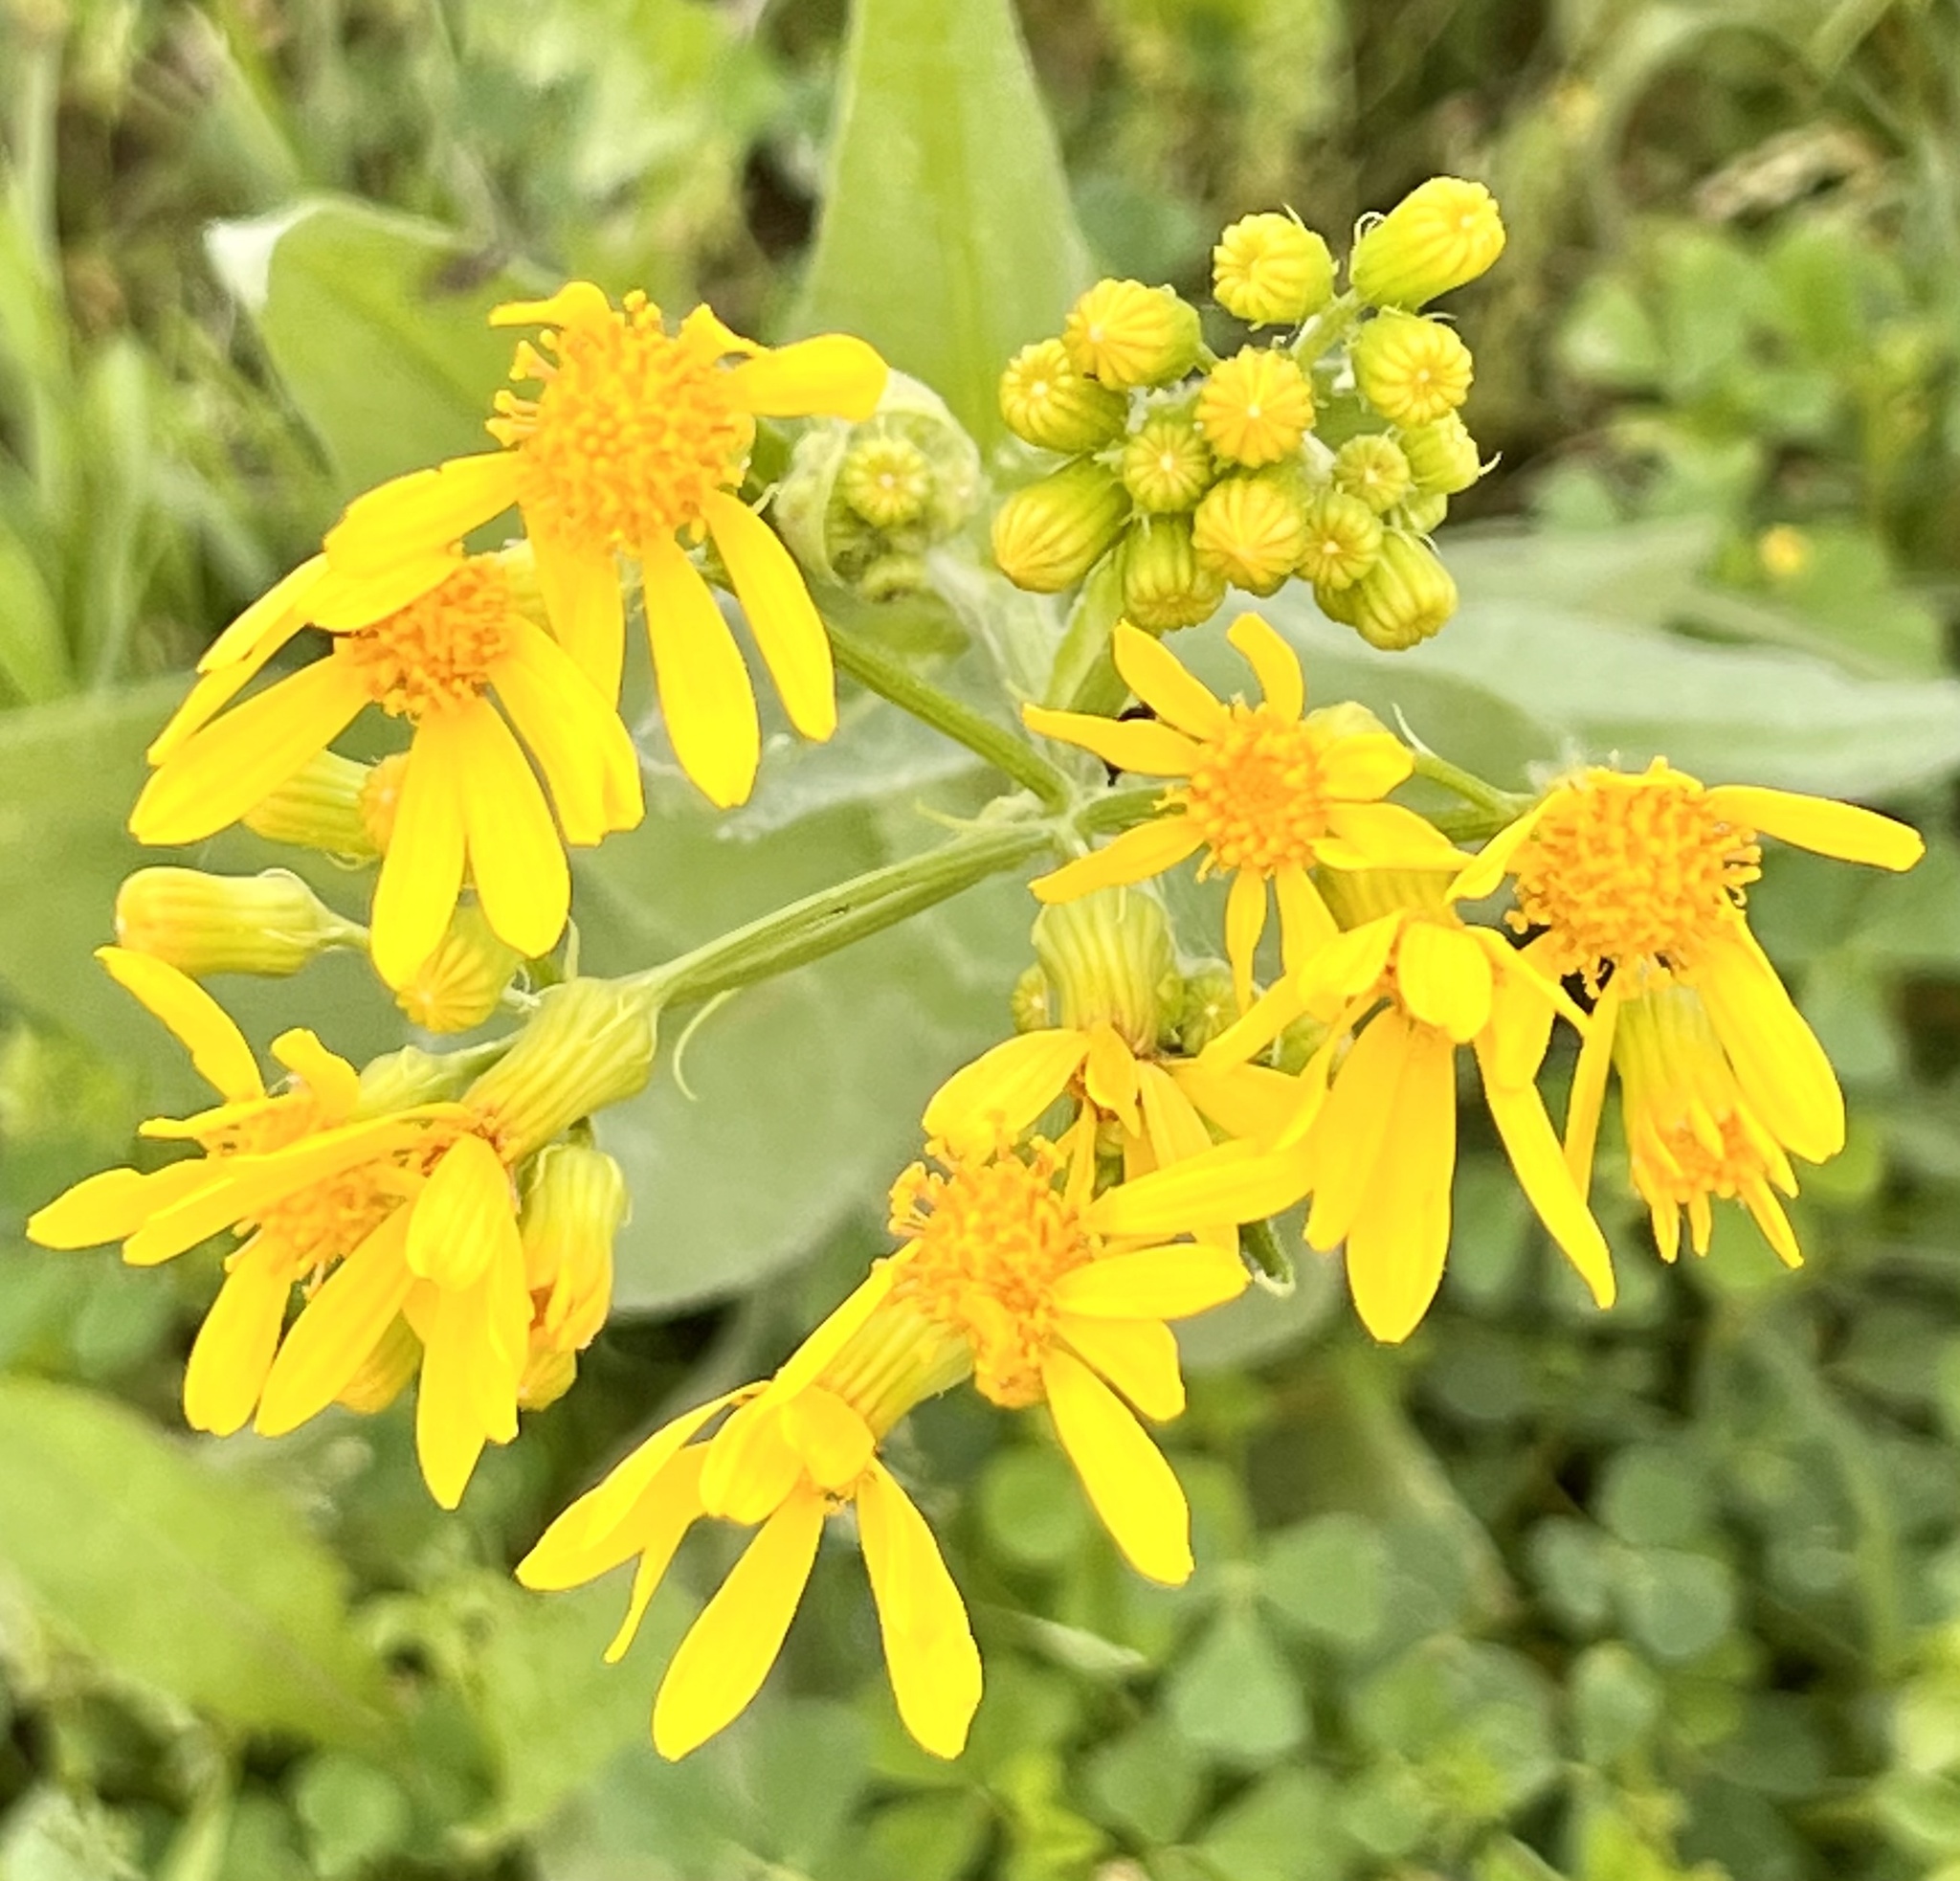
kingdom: Plantae
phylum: Tracheophyta
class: Magnoliopsida
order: Asterales
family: Asteraceae
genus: Senecio
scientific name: Senecio ampullaceus
